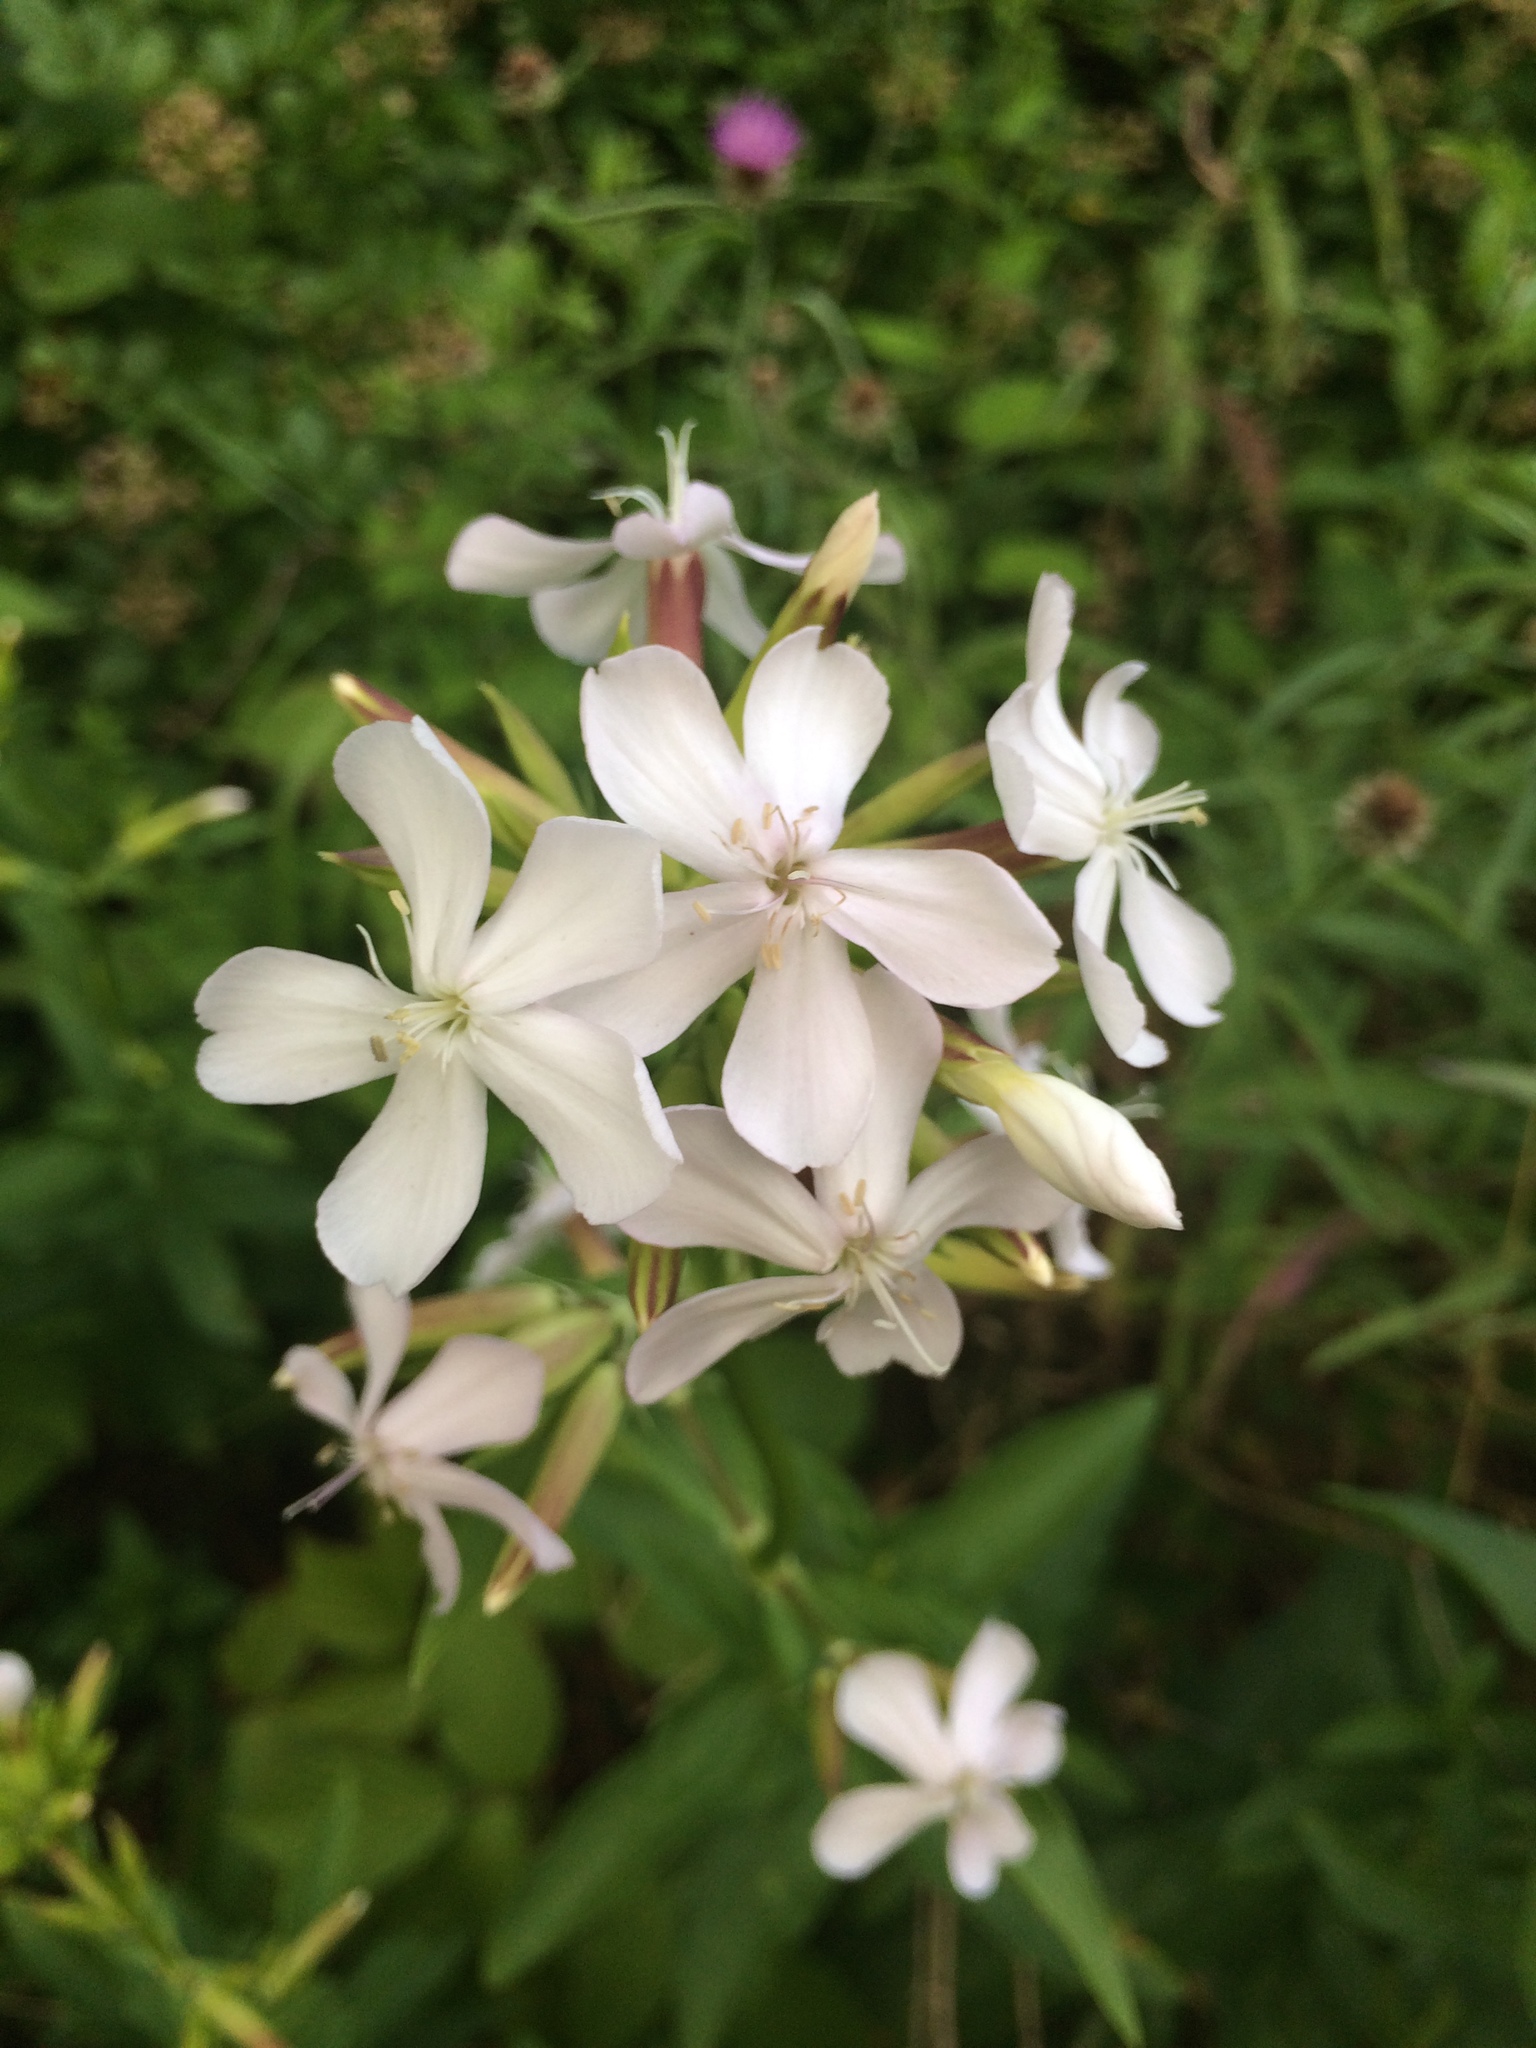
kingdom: Plantae
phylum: Tracheophyta
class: Magnoliopsida
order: Caryophyllales
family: Caryophyllaceae
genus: Saponaria
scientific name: Saponaria officinalis
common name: Soapwort
